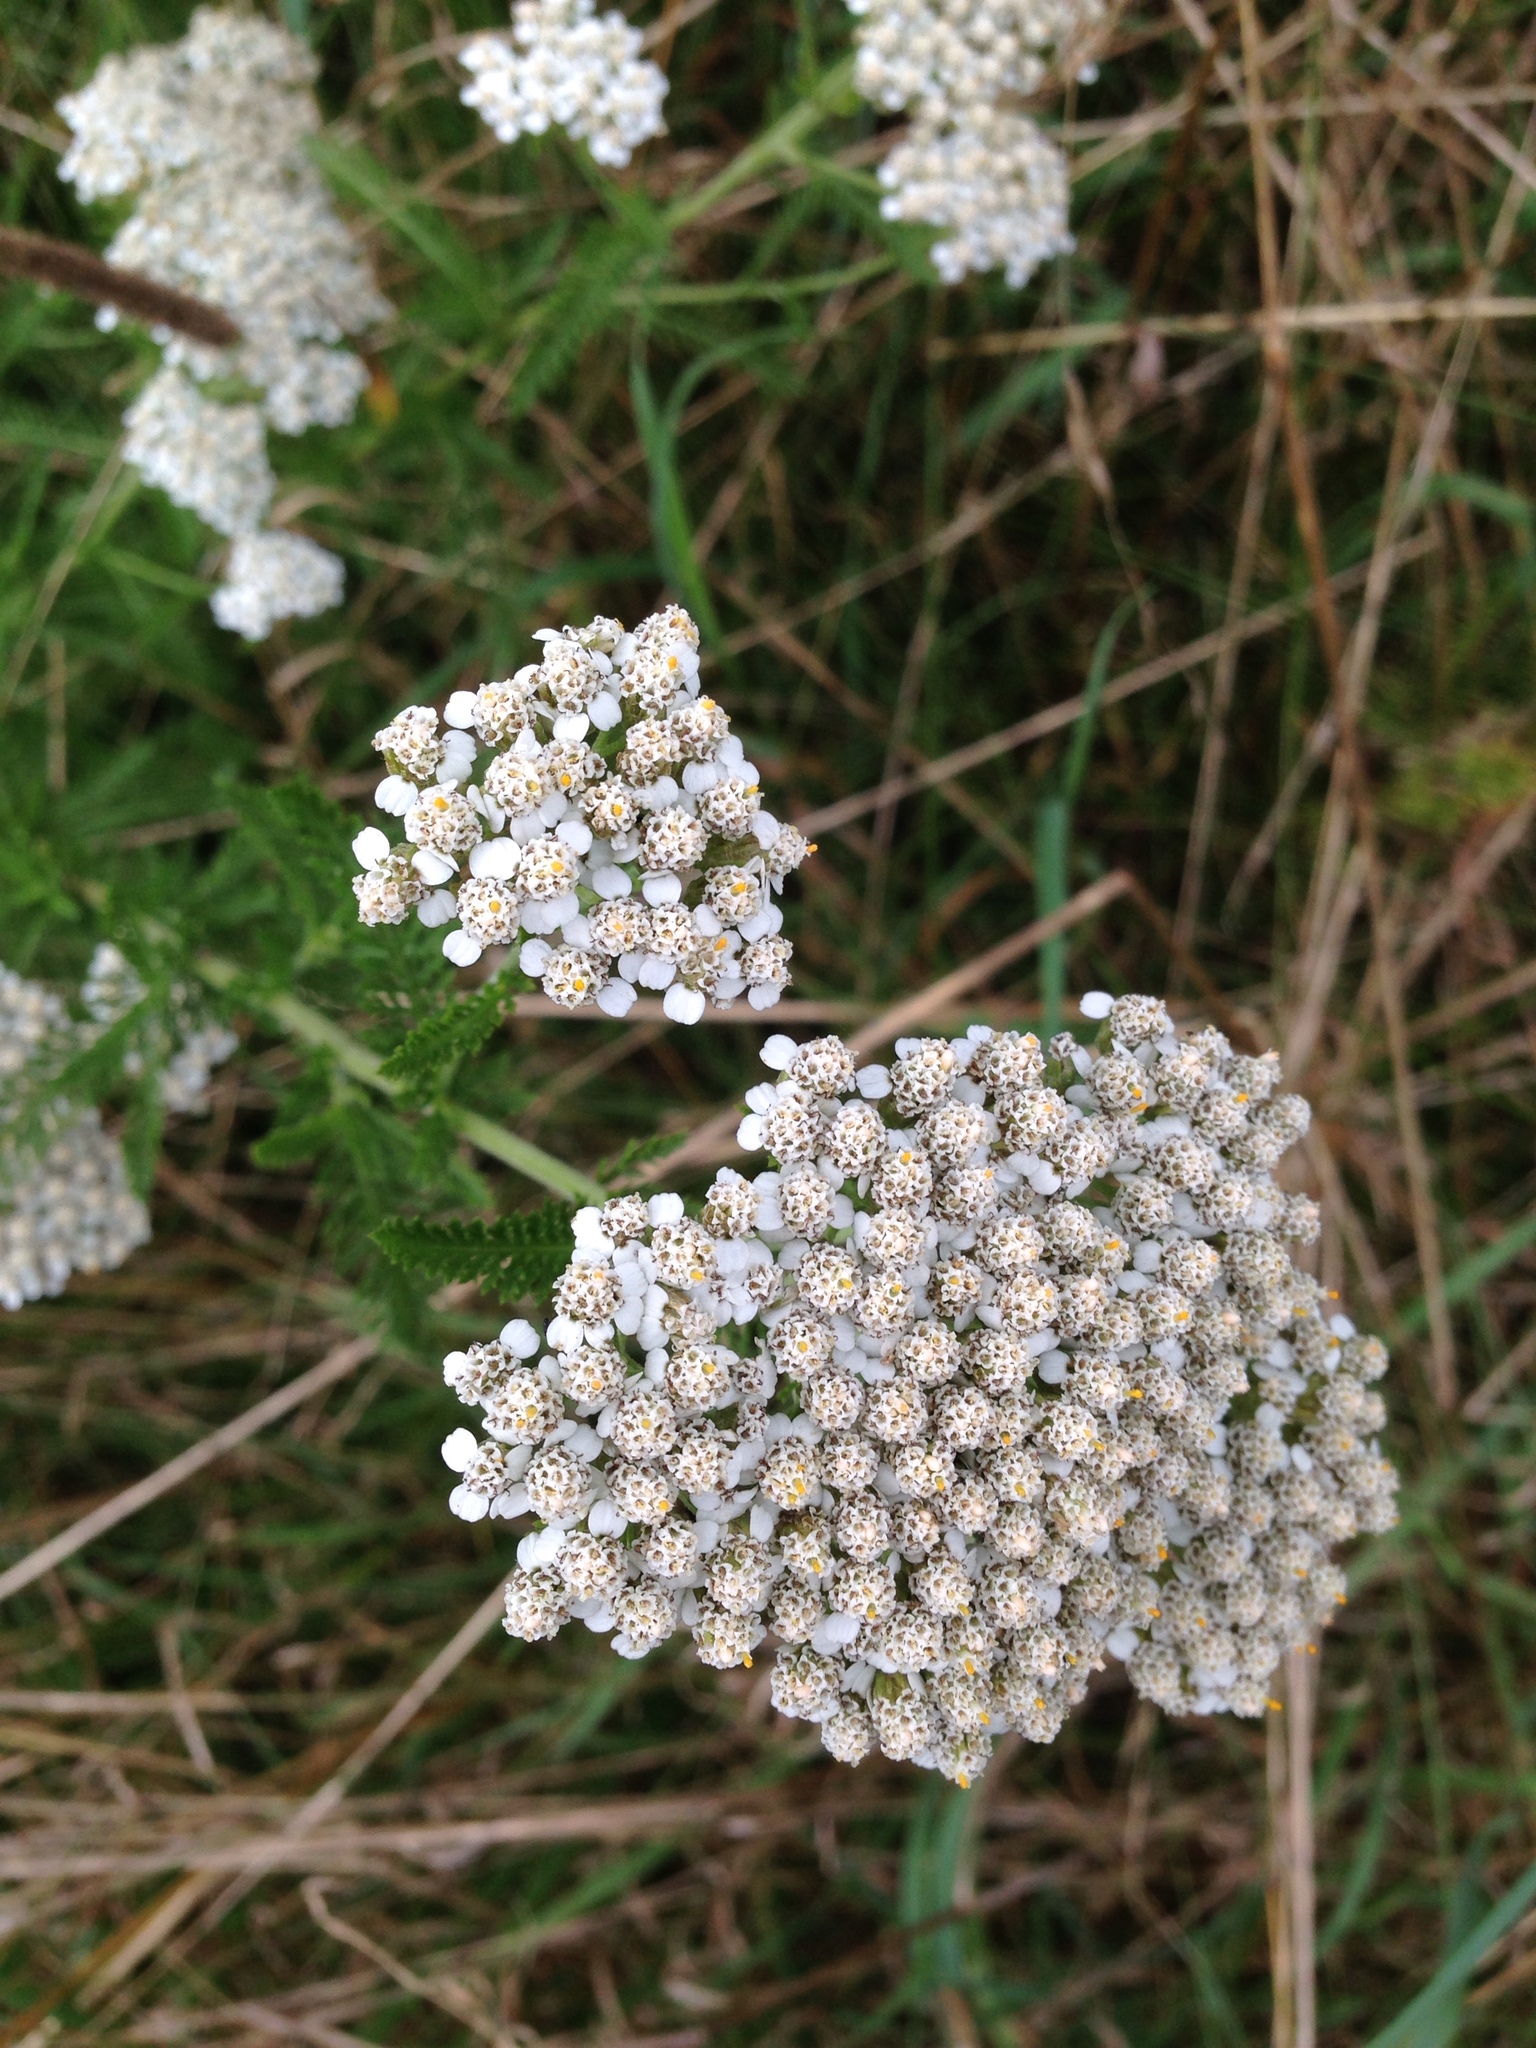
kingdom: Plantae
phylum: Tracheophyta
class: Magnoliopsida
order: Asterales
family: Asteraceae
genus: Achillea
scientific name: Achillea millefolium
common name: Yarrow
